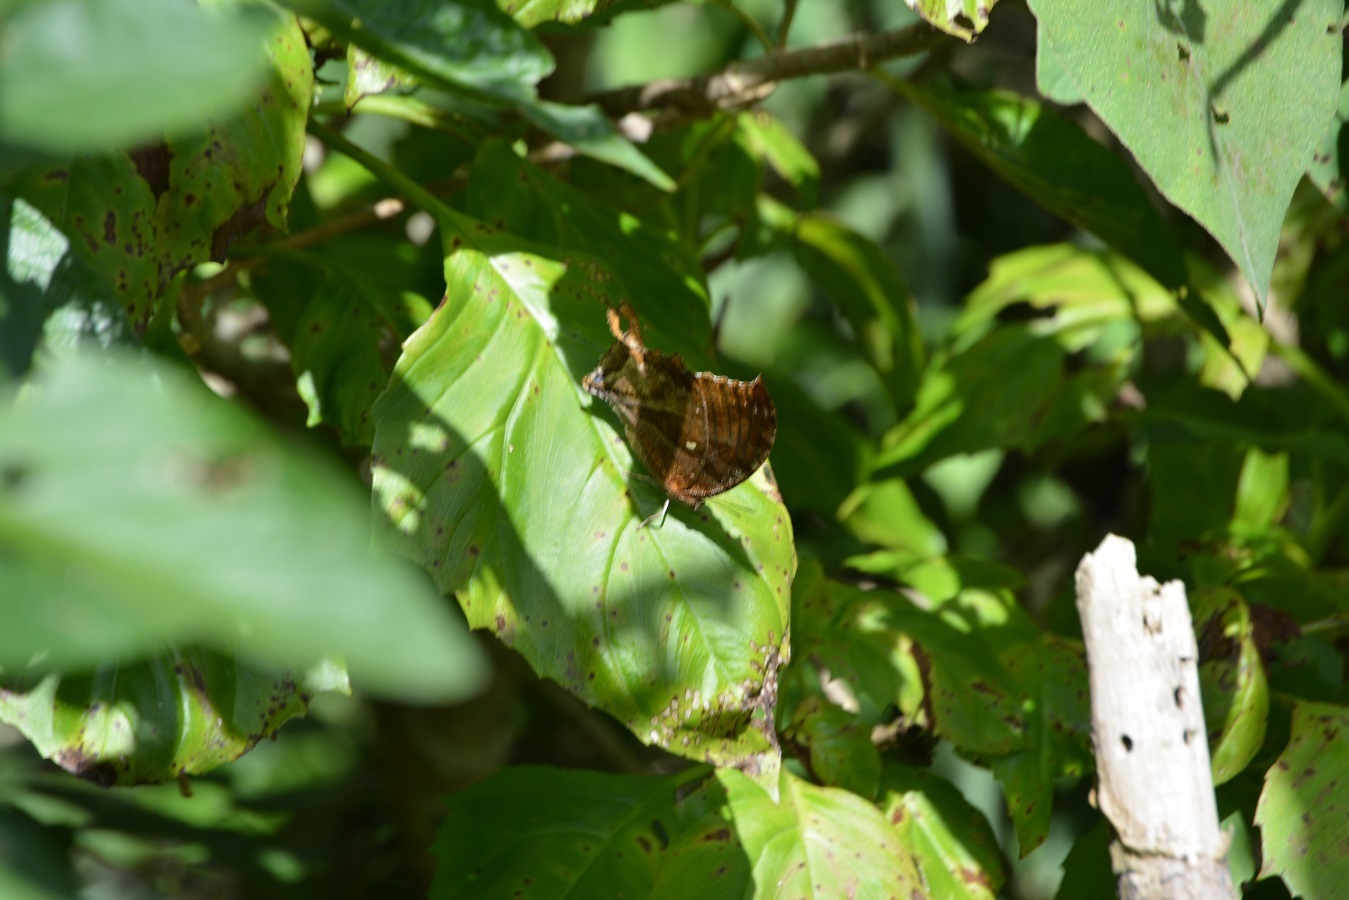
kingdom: Animalia
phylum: Arthropoda
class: Insecta
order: Lepidoptera
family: Nymphalidae
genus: Consul
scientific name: Consul excellens
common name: Black-veined leafwing
